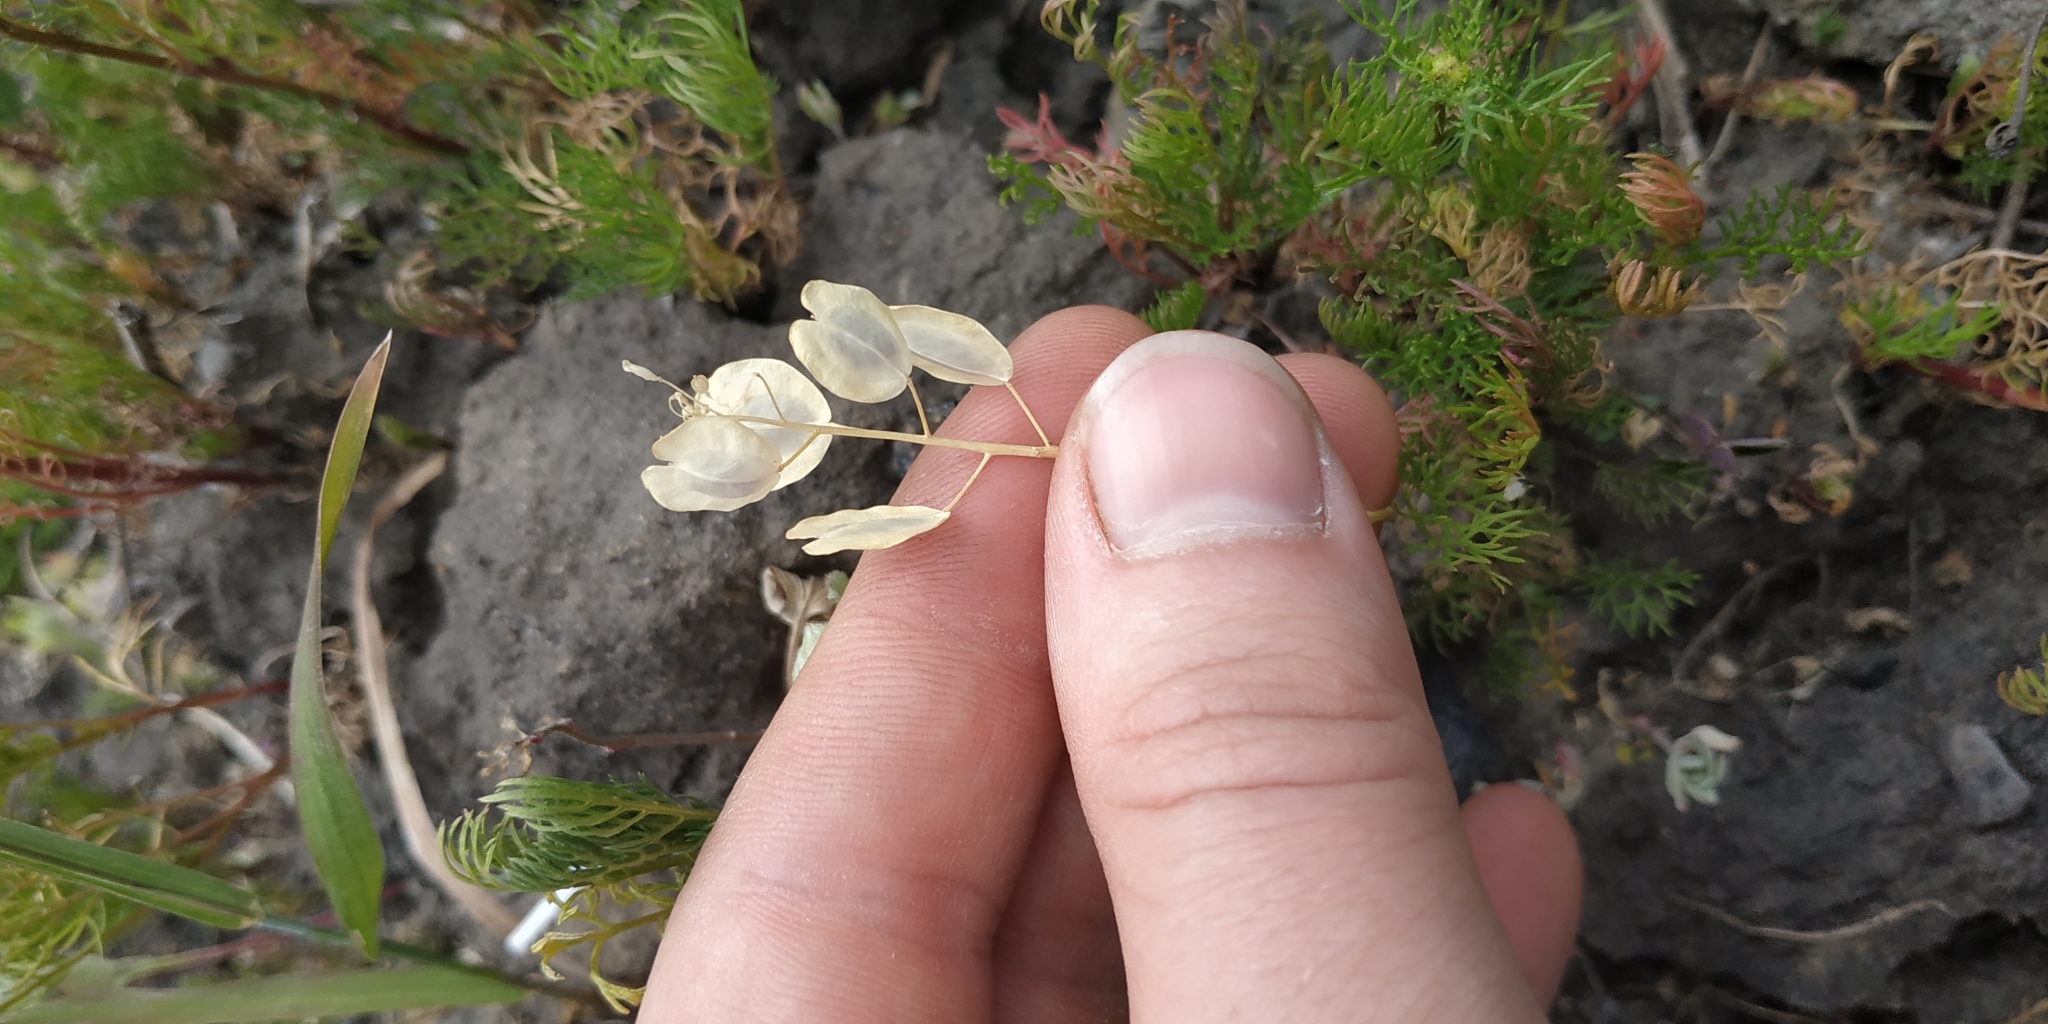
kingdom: Plantae
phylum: Tracheophyta
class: Magnoliopsida
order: Brassicales
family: Brassicaceae
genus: Thlaspi
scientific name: Thlaspi arvense
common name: Field pennycress
